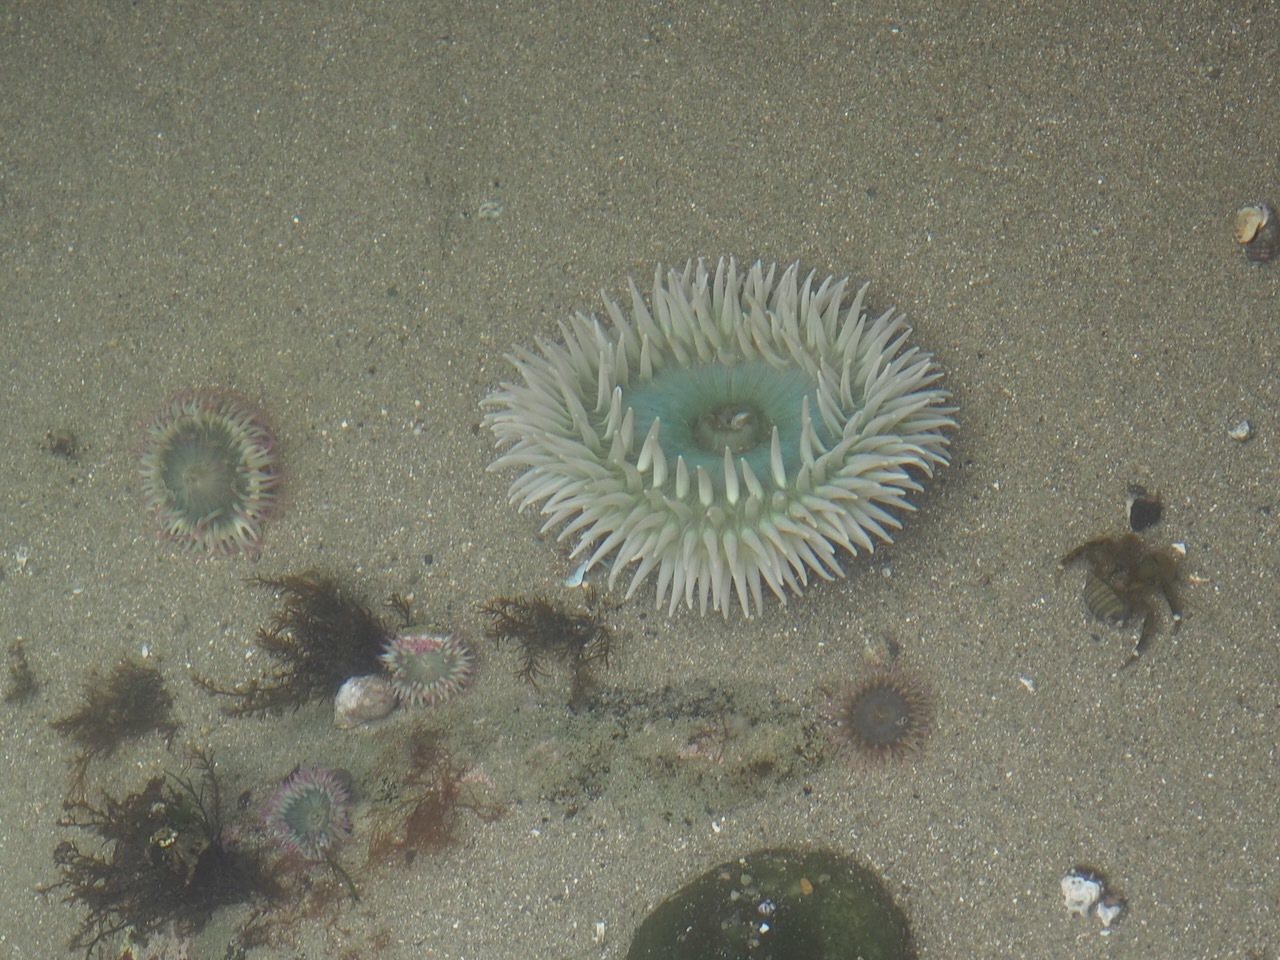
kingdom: Animalia
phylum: Cnidaria
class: Anthozoa
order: Actiniaria
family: Actiniidae
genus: Anthopleura
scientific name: Anthopleura xanthogrammica
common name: Giant green anemone
